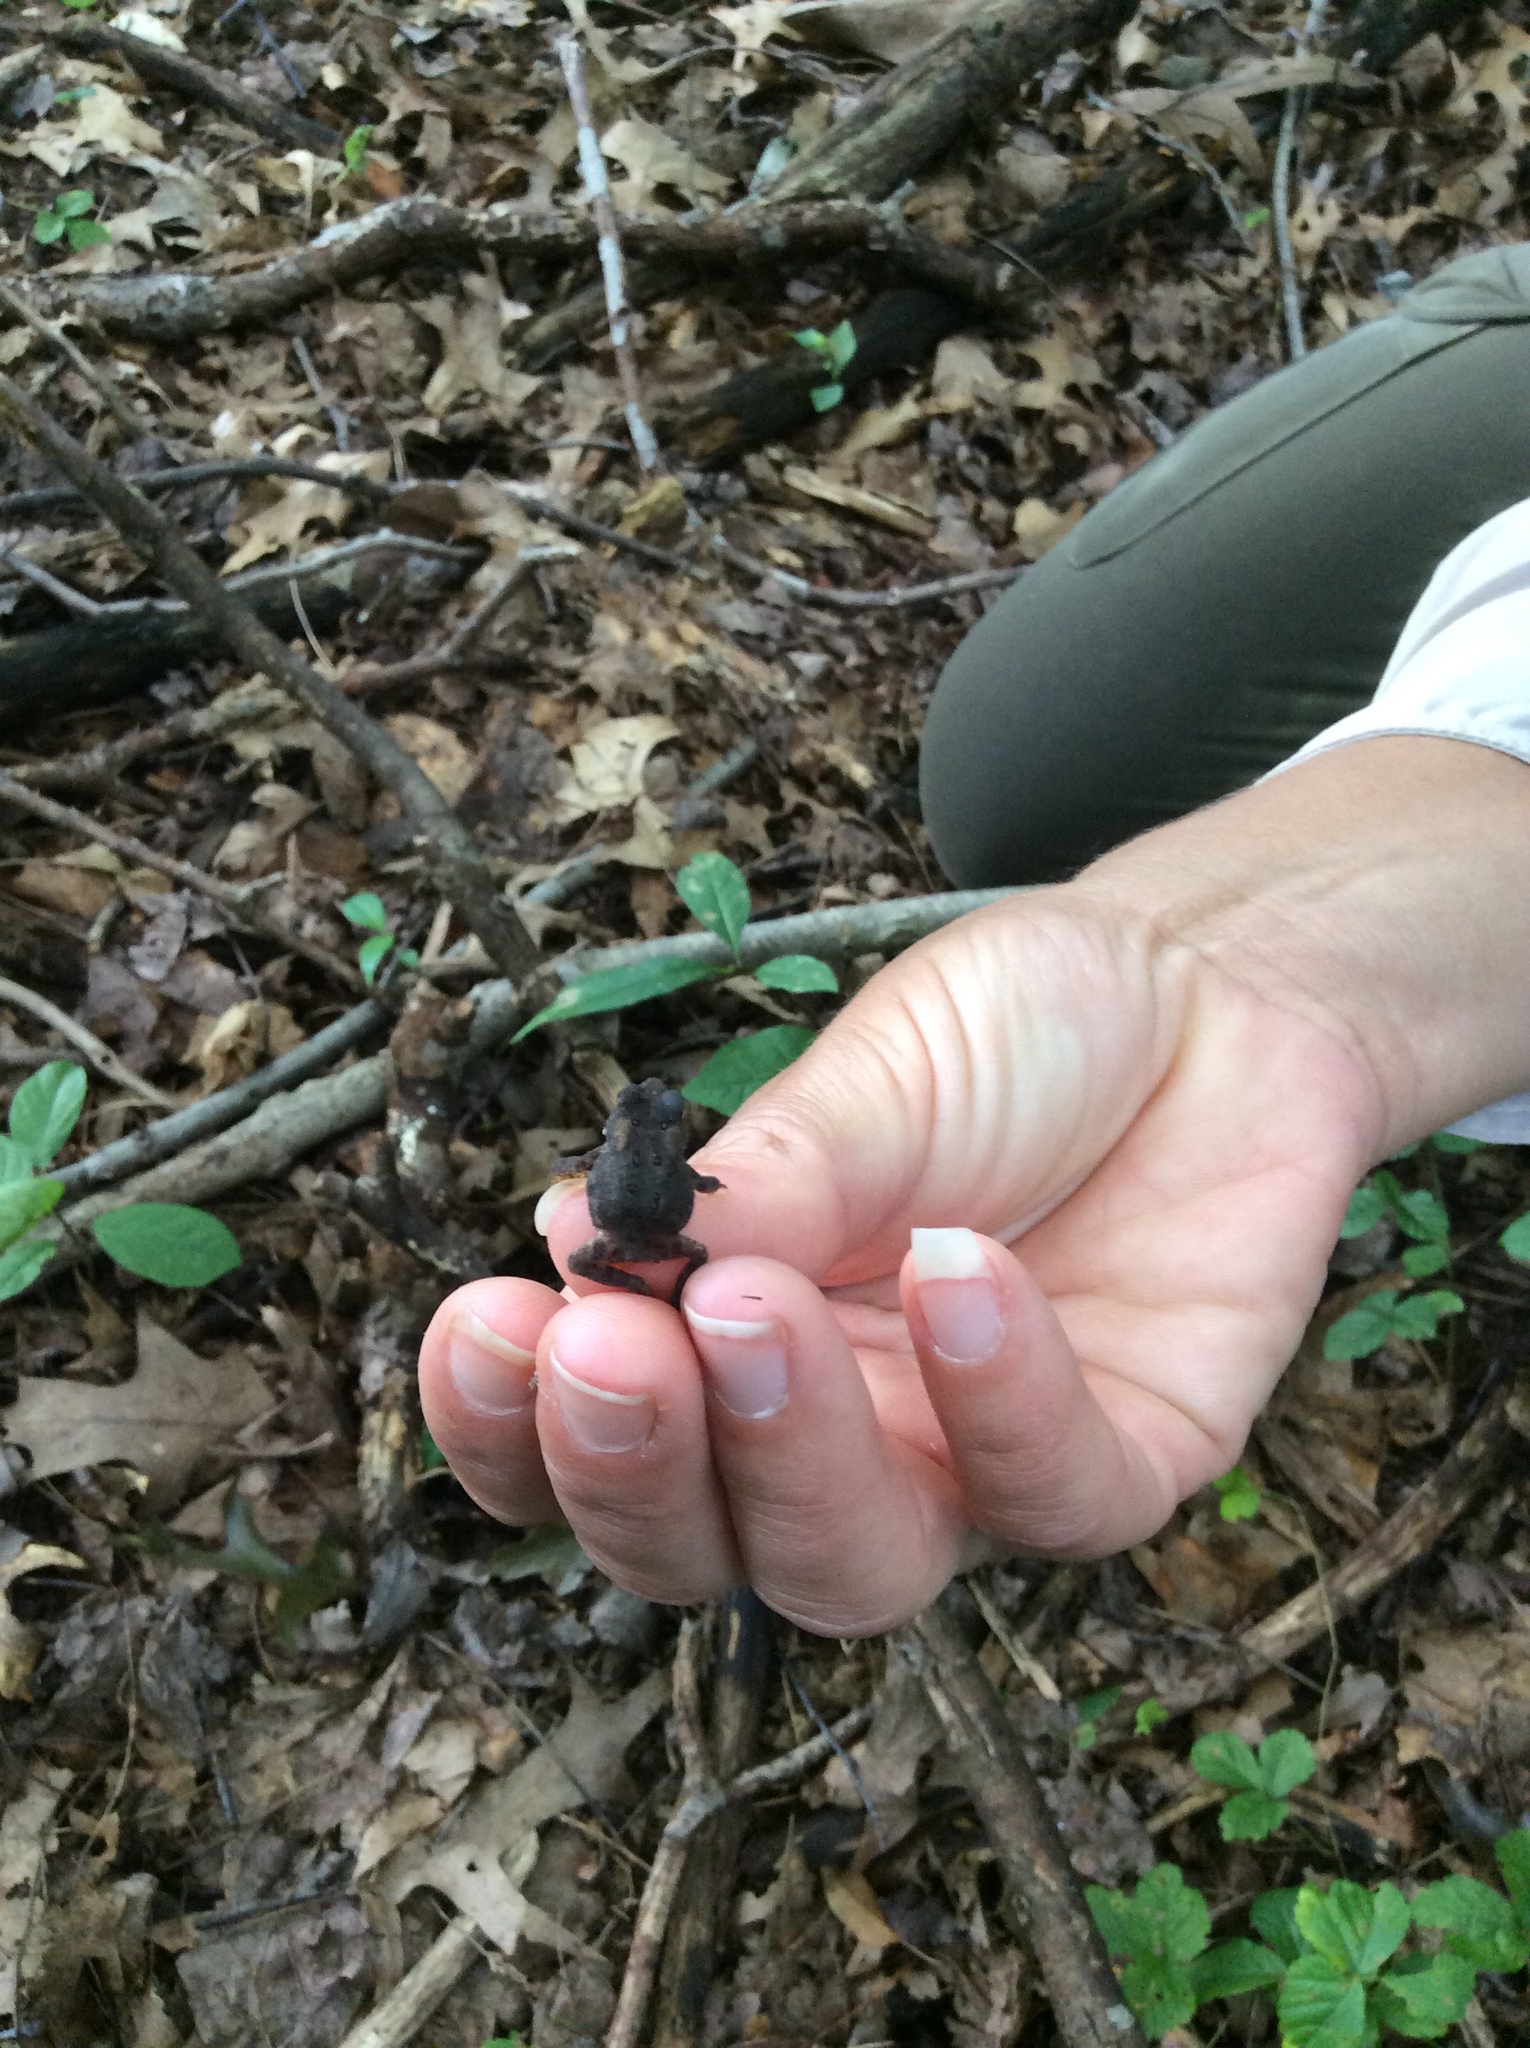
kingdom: Animalia
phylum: Chordata
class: Amphibia
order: Anura
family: Bufonidae
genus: Anaxyrus
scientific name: Anaxyrus americanus
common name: American toad
